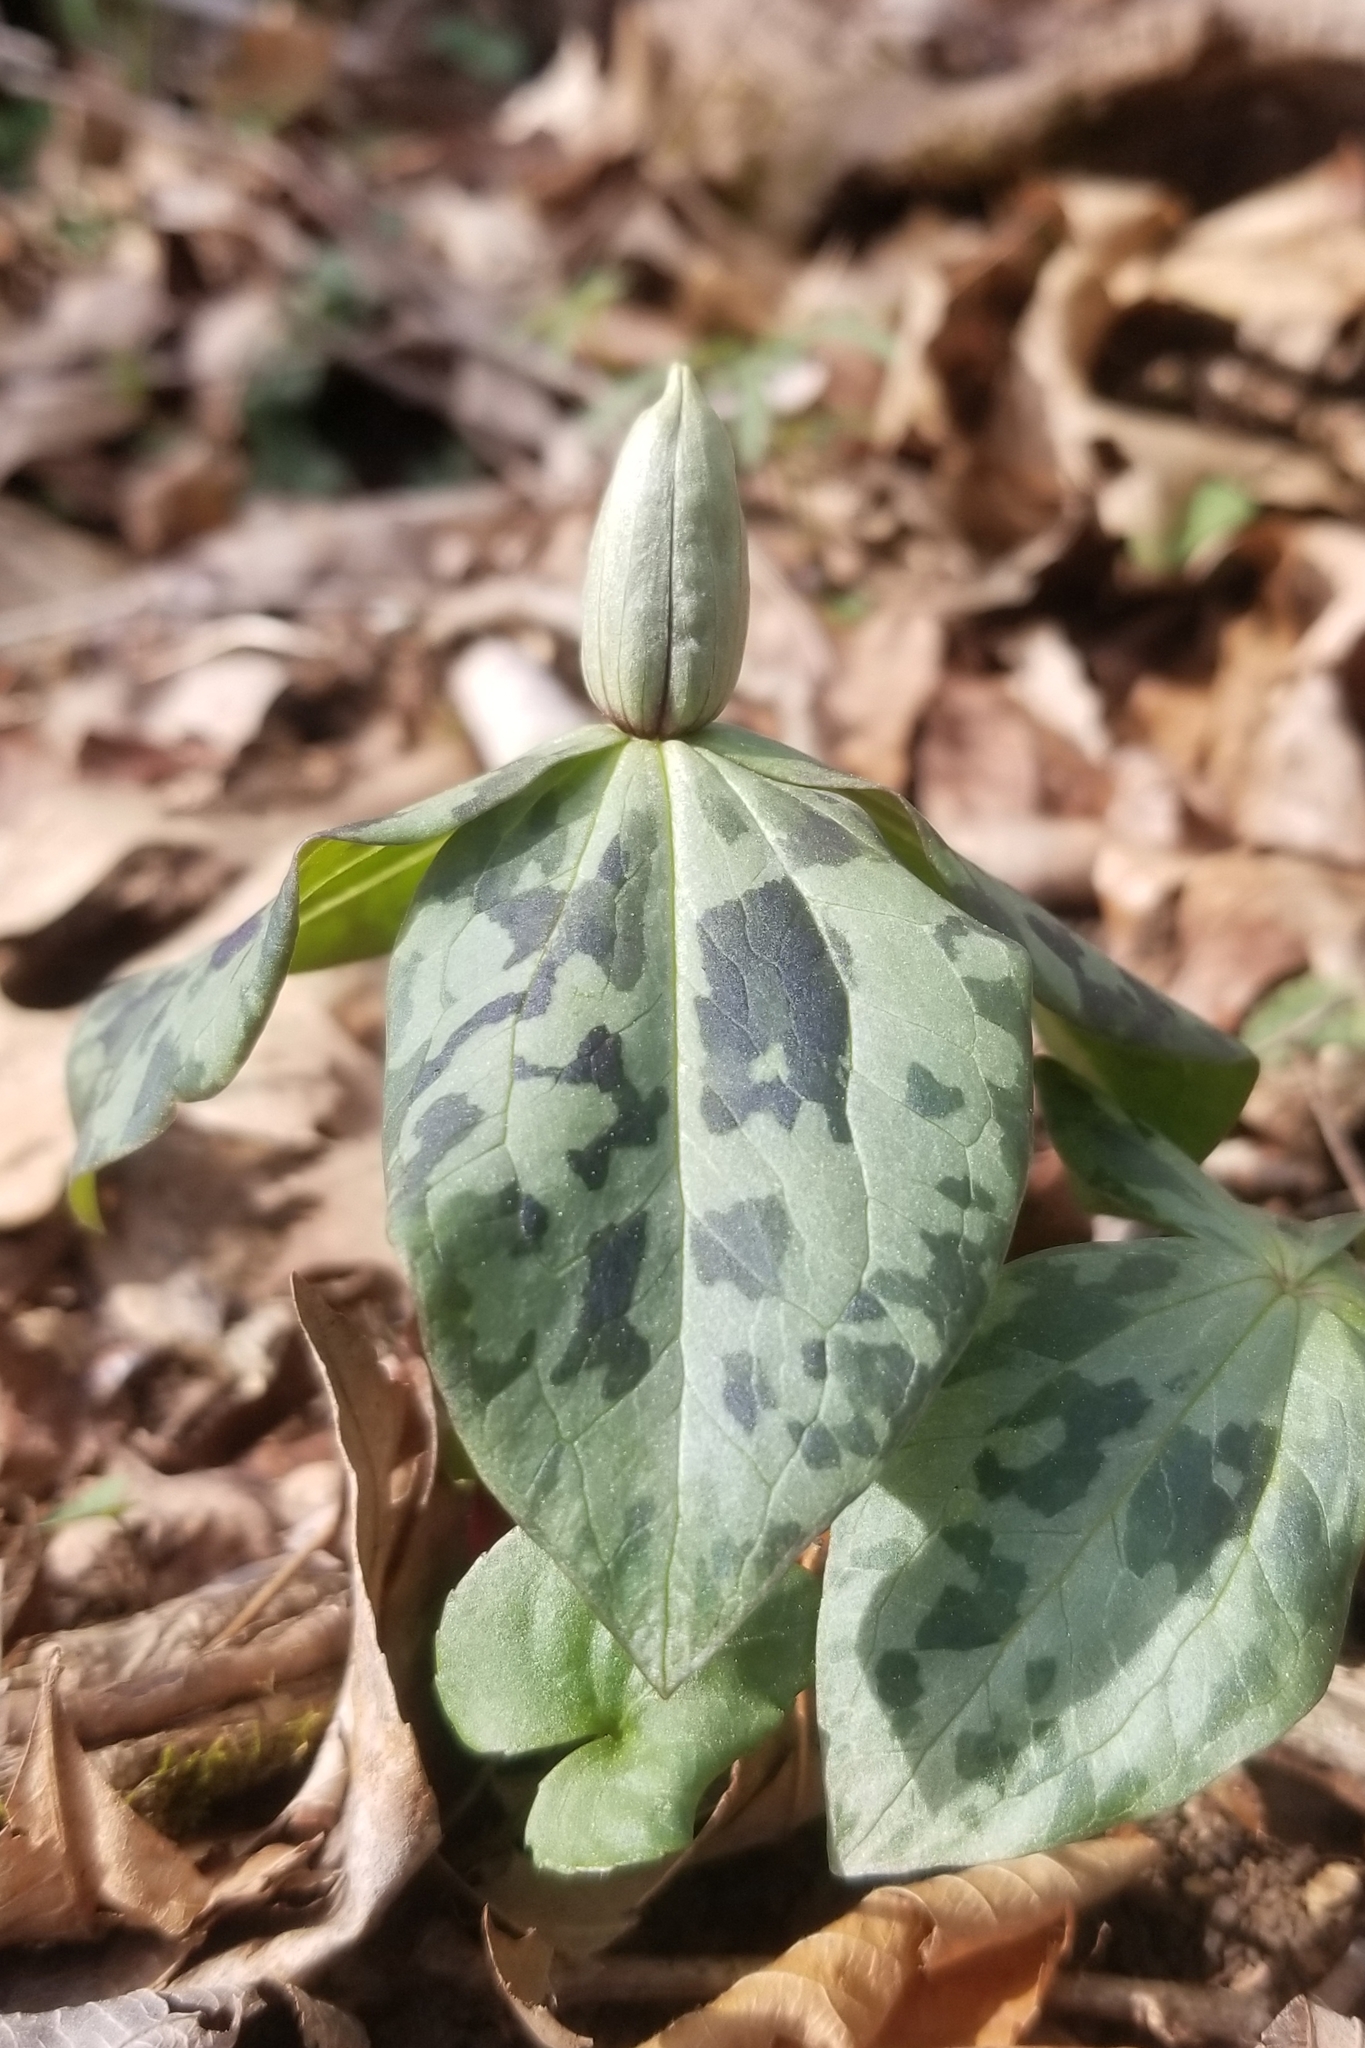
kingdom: Plantae
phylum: Tracheophyta
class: Liliopsida
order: Liliales
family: Melanthiaceae
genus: Trillium
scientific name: Trillium stamineum
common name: Blue ridge wakerobin
